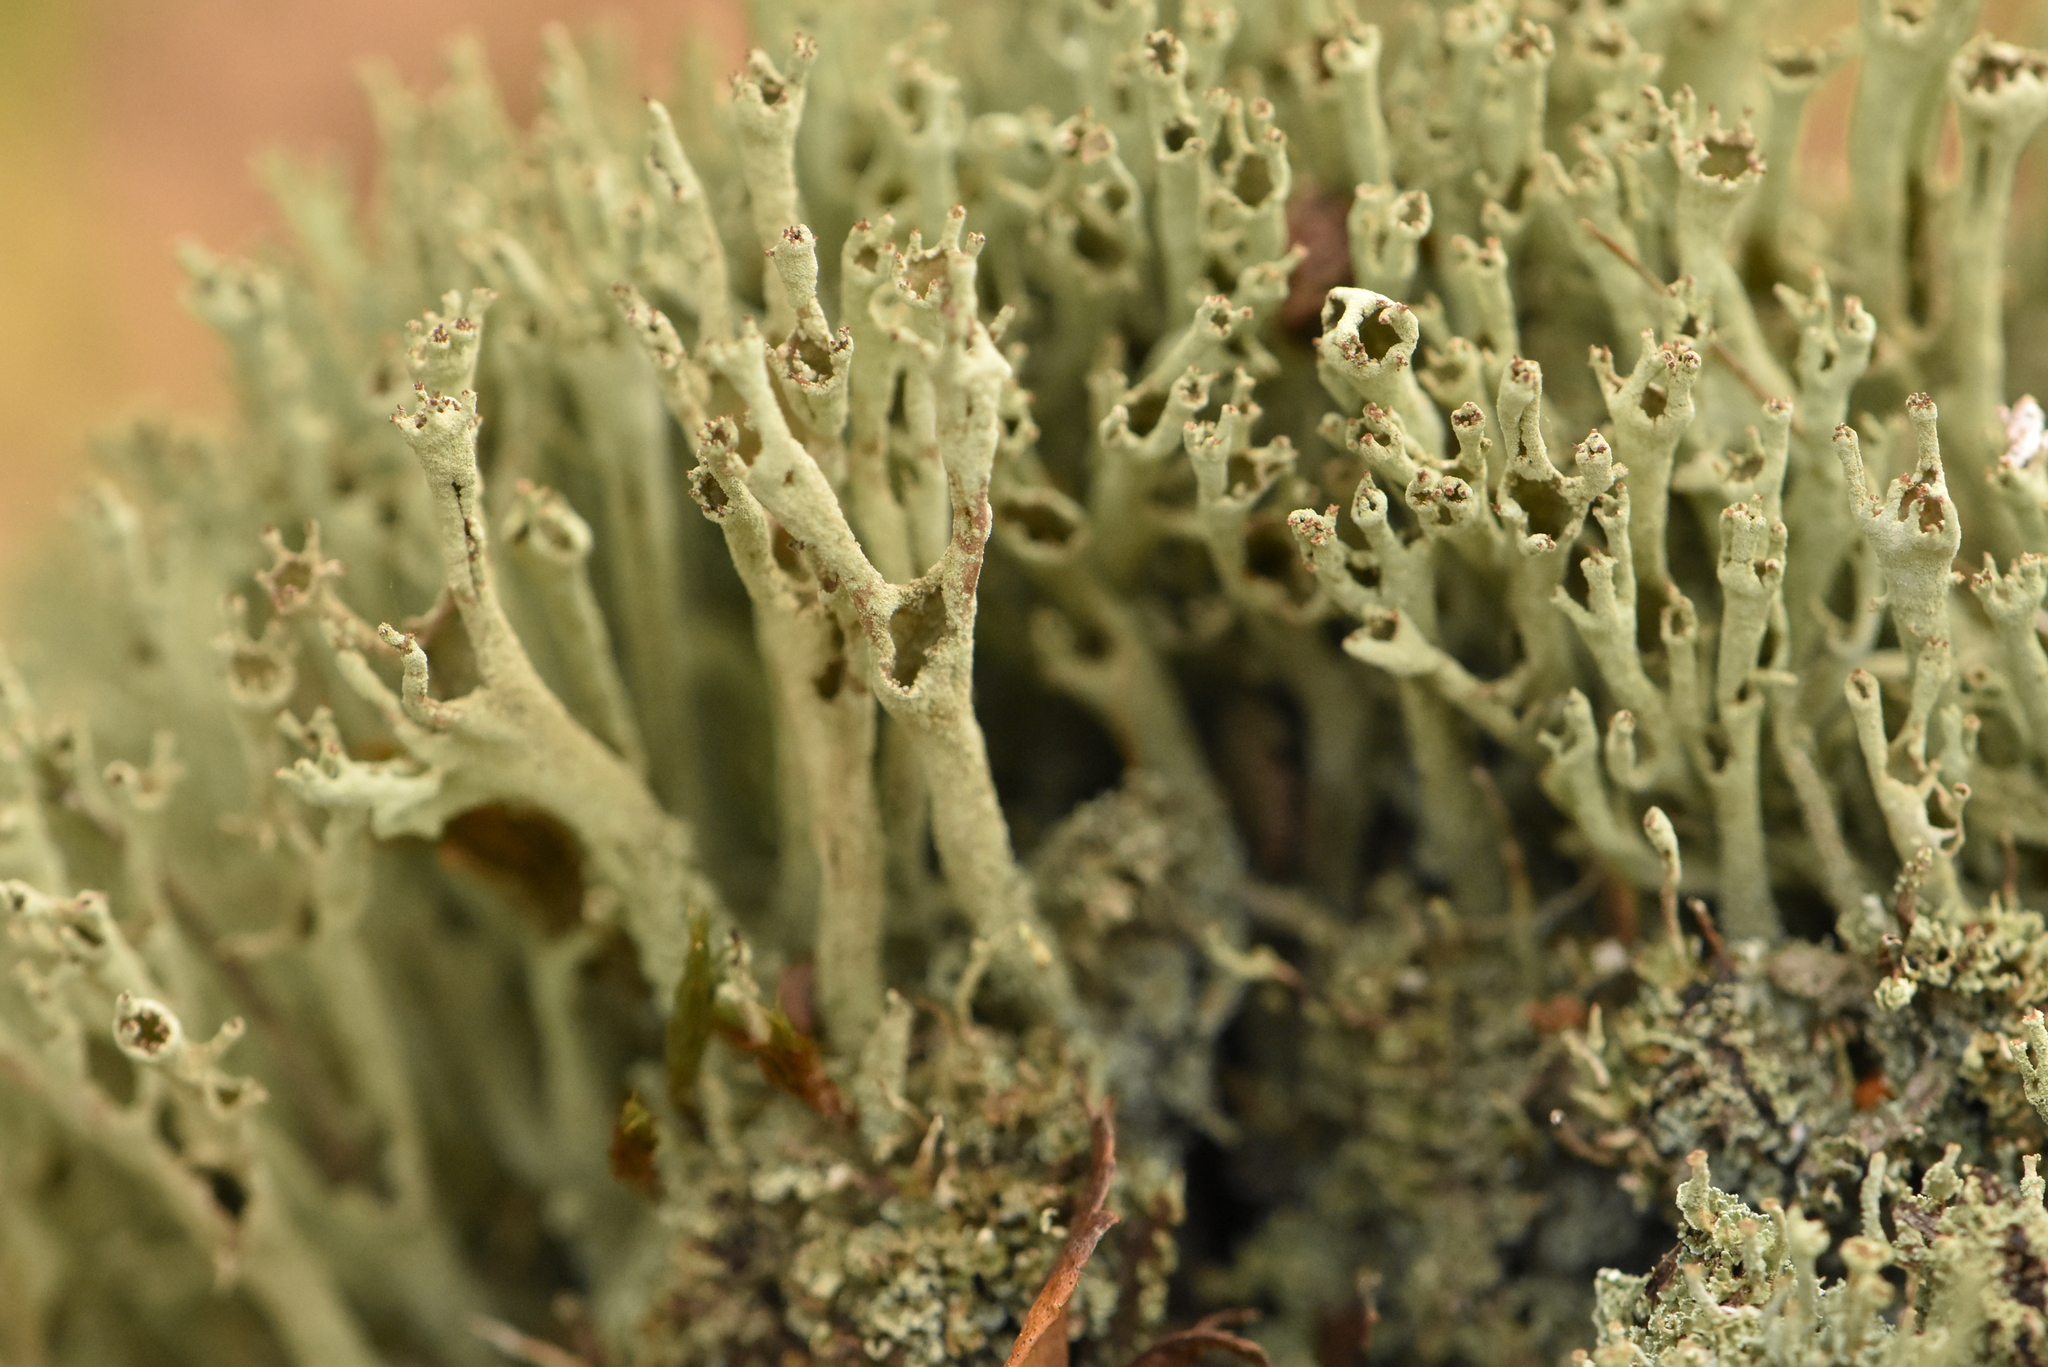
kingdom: Fungi
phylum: Ascomycota
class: Lecanoromycetes
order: Lecanorales
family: Cladoniaceae
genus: Cladonia
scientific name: Cladonia cenotea
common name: Powdered funnel lichen
